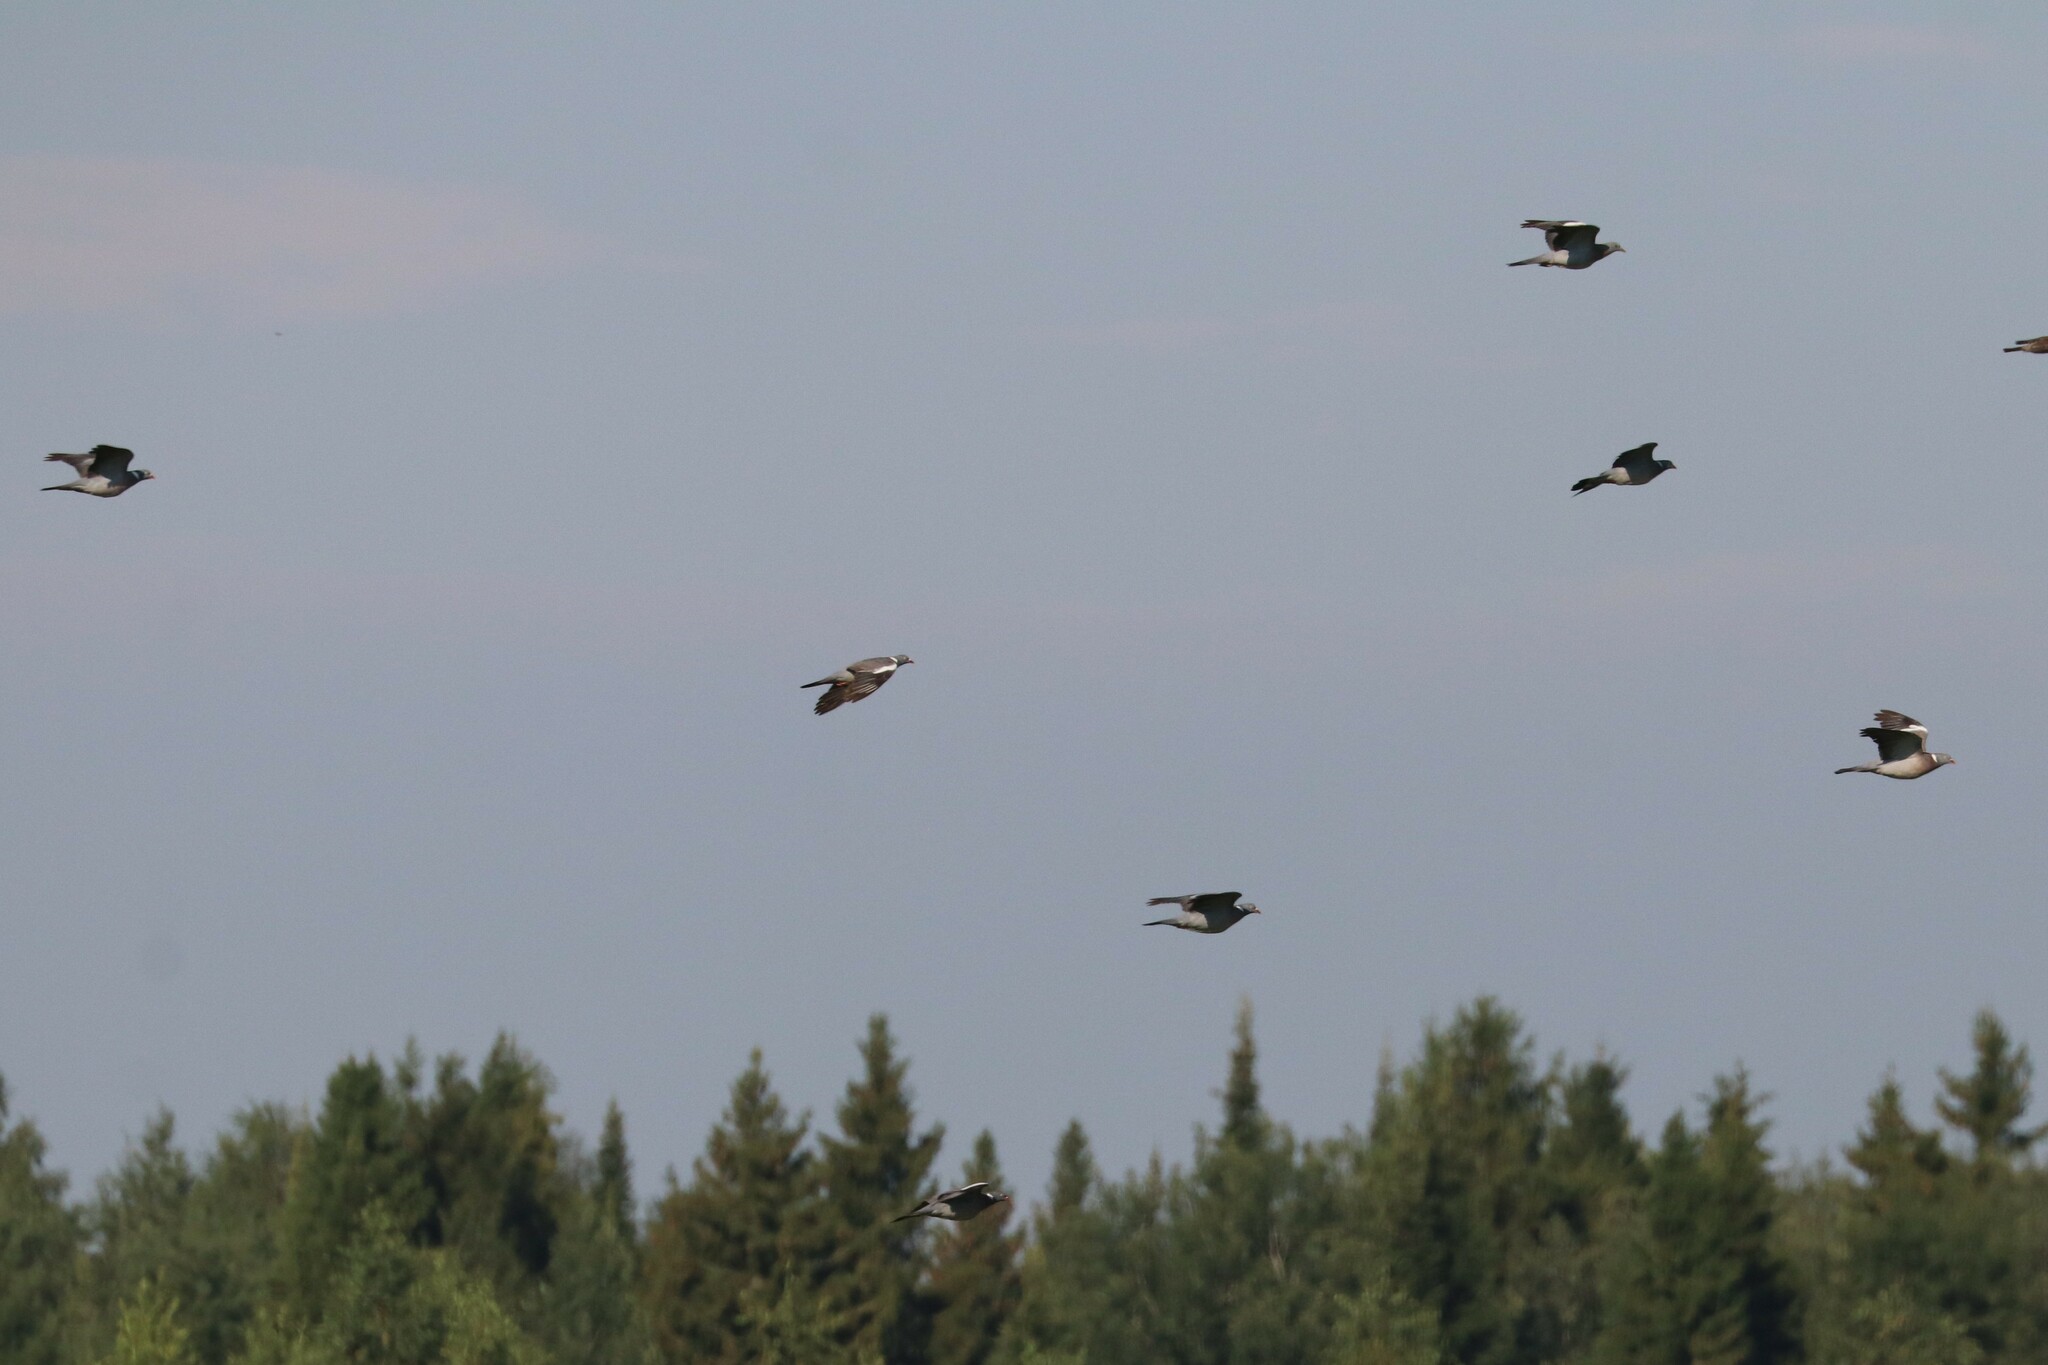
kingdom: Animalia
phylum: Chordata
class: Aves
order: Columbiformes
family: Columbidae
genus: Columba
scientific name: Columba palumbus
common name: Common wood pigeon
